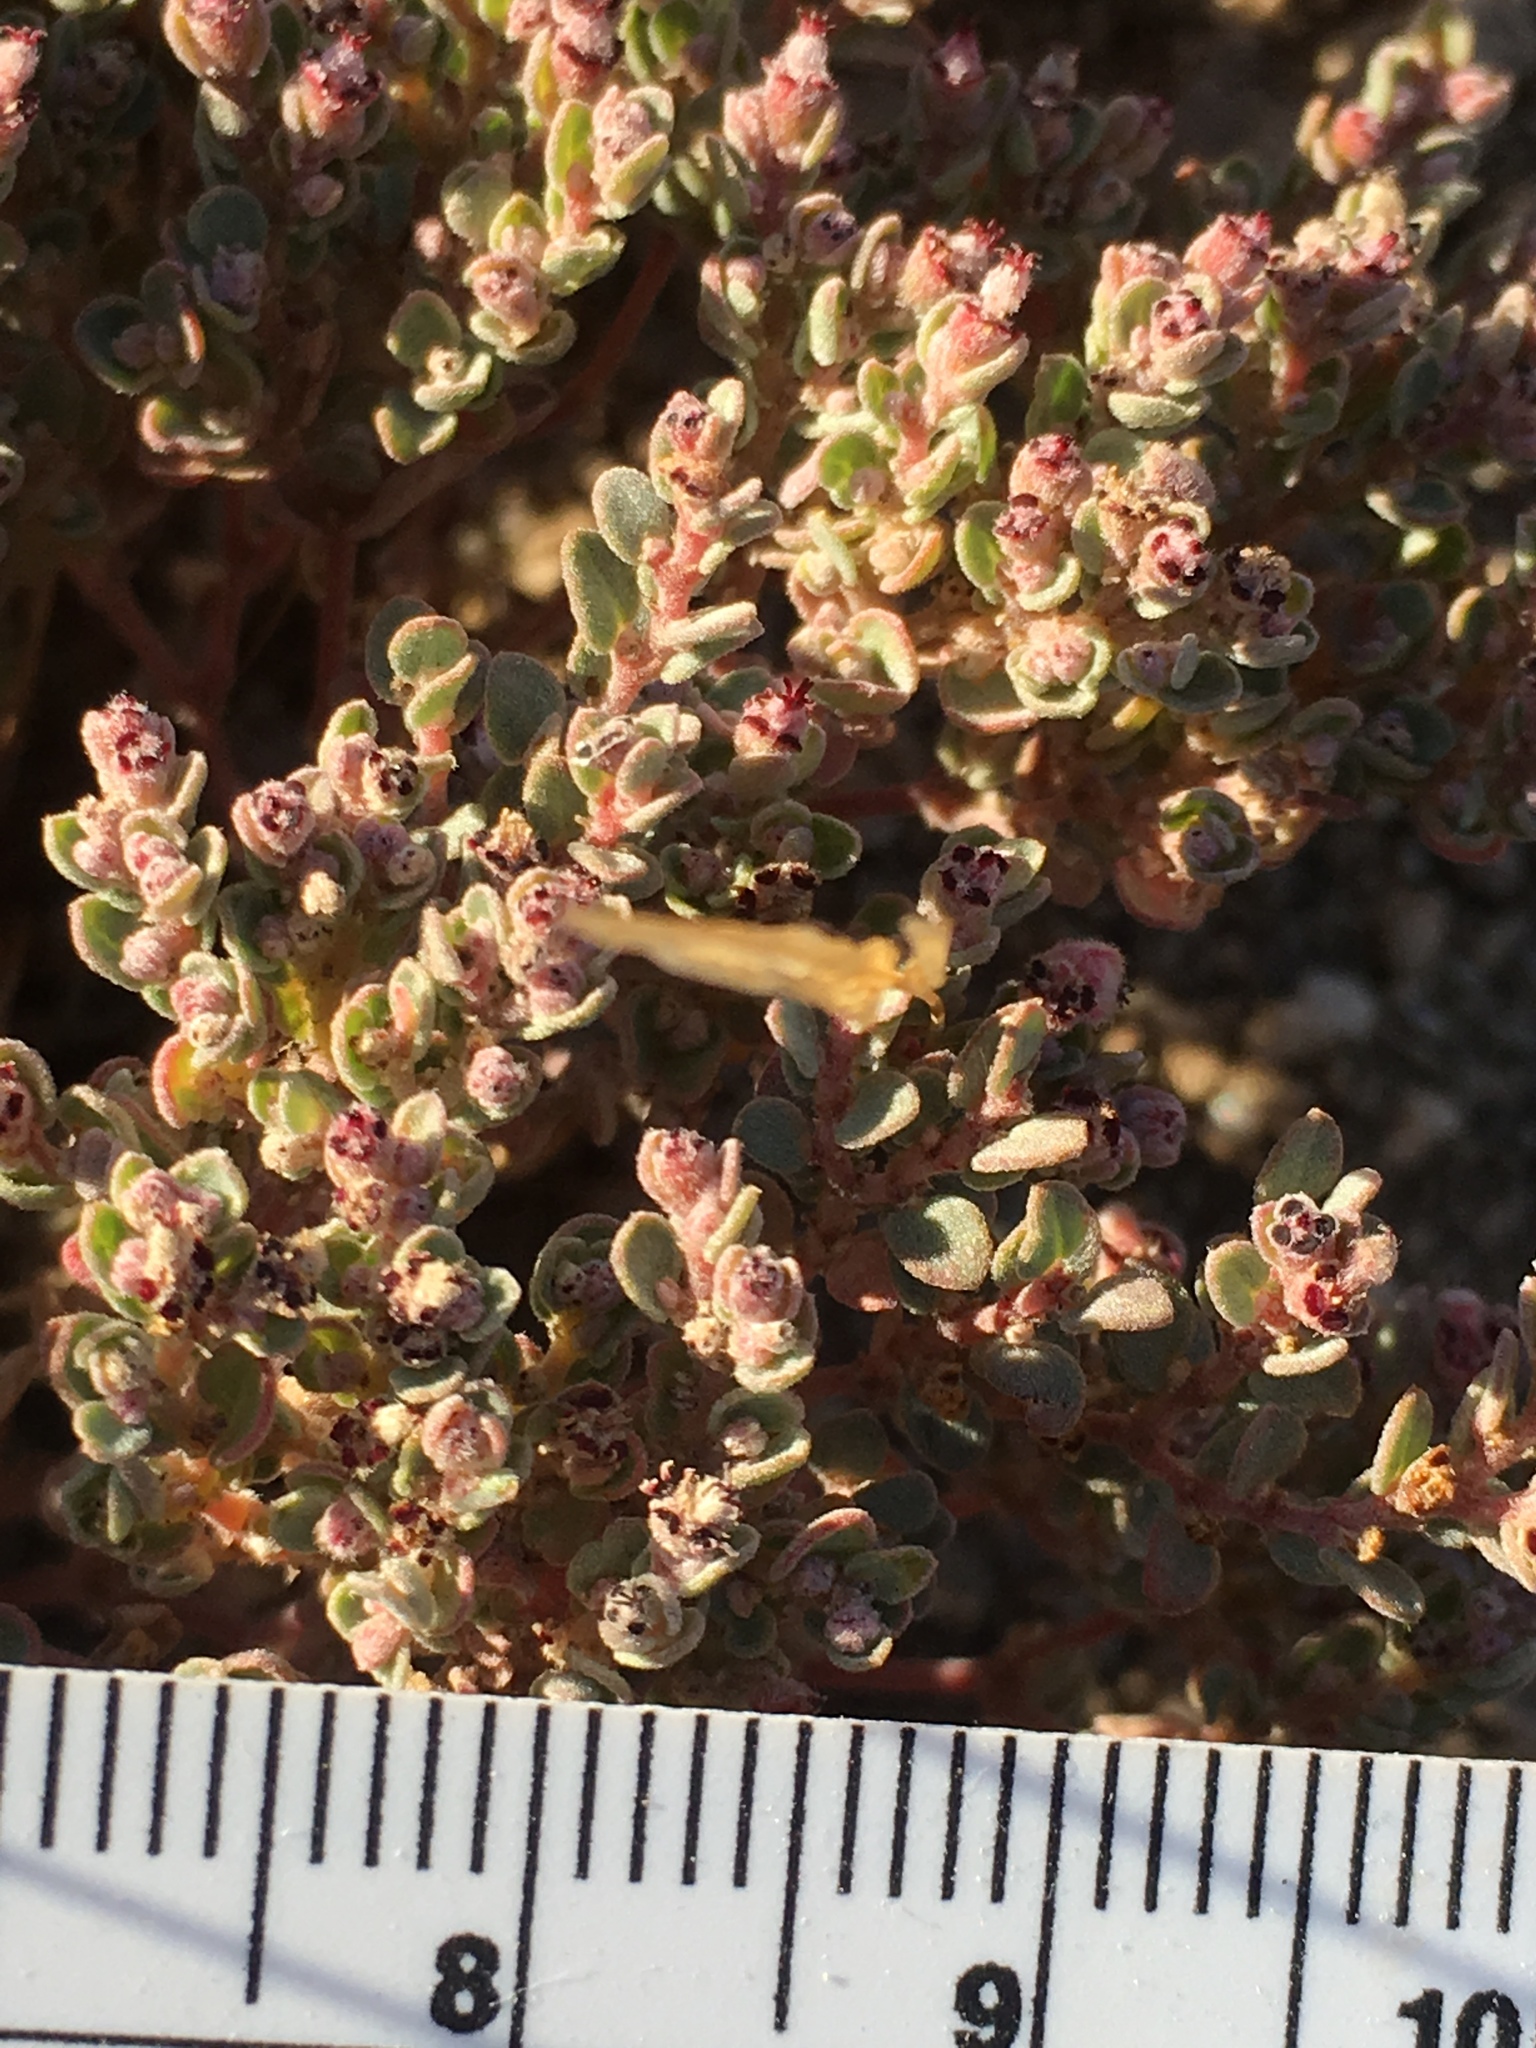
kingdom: Plantae
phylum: Tracheophyta
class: Magnoliopsida
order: Malpighiales
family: Euphorbiaceae
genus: Euphorbia
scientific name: Euphorbia melanadenia
